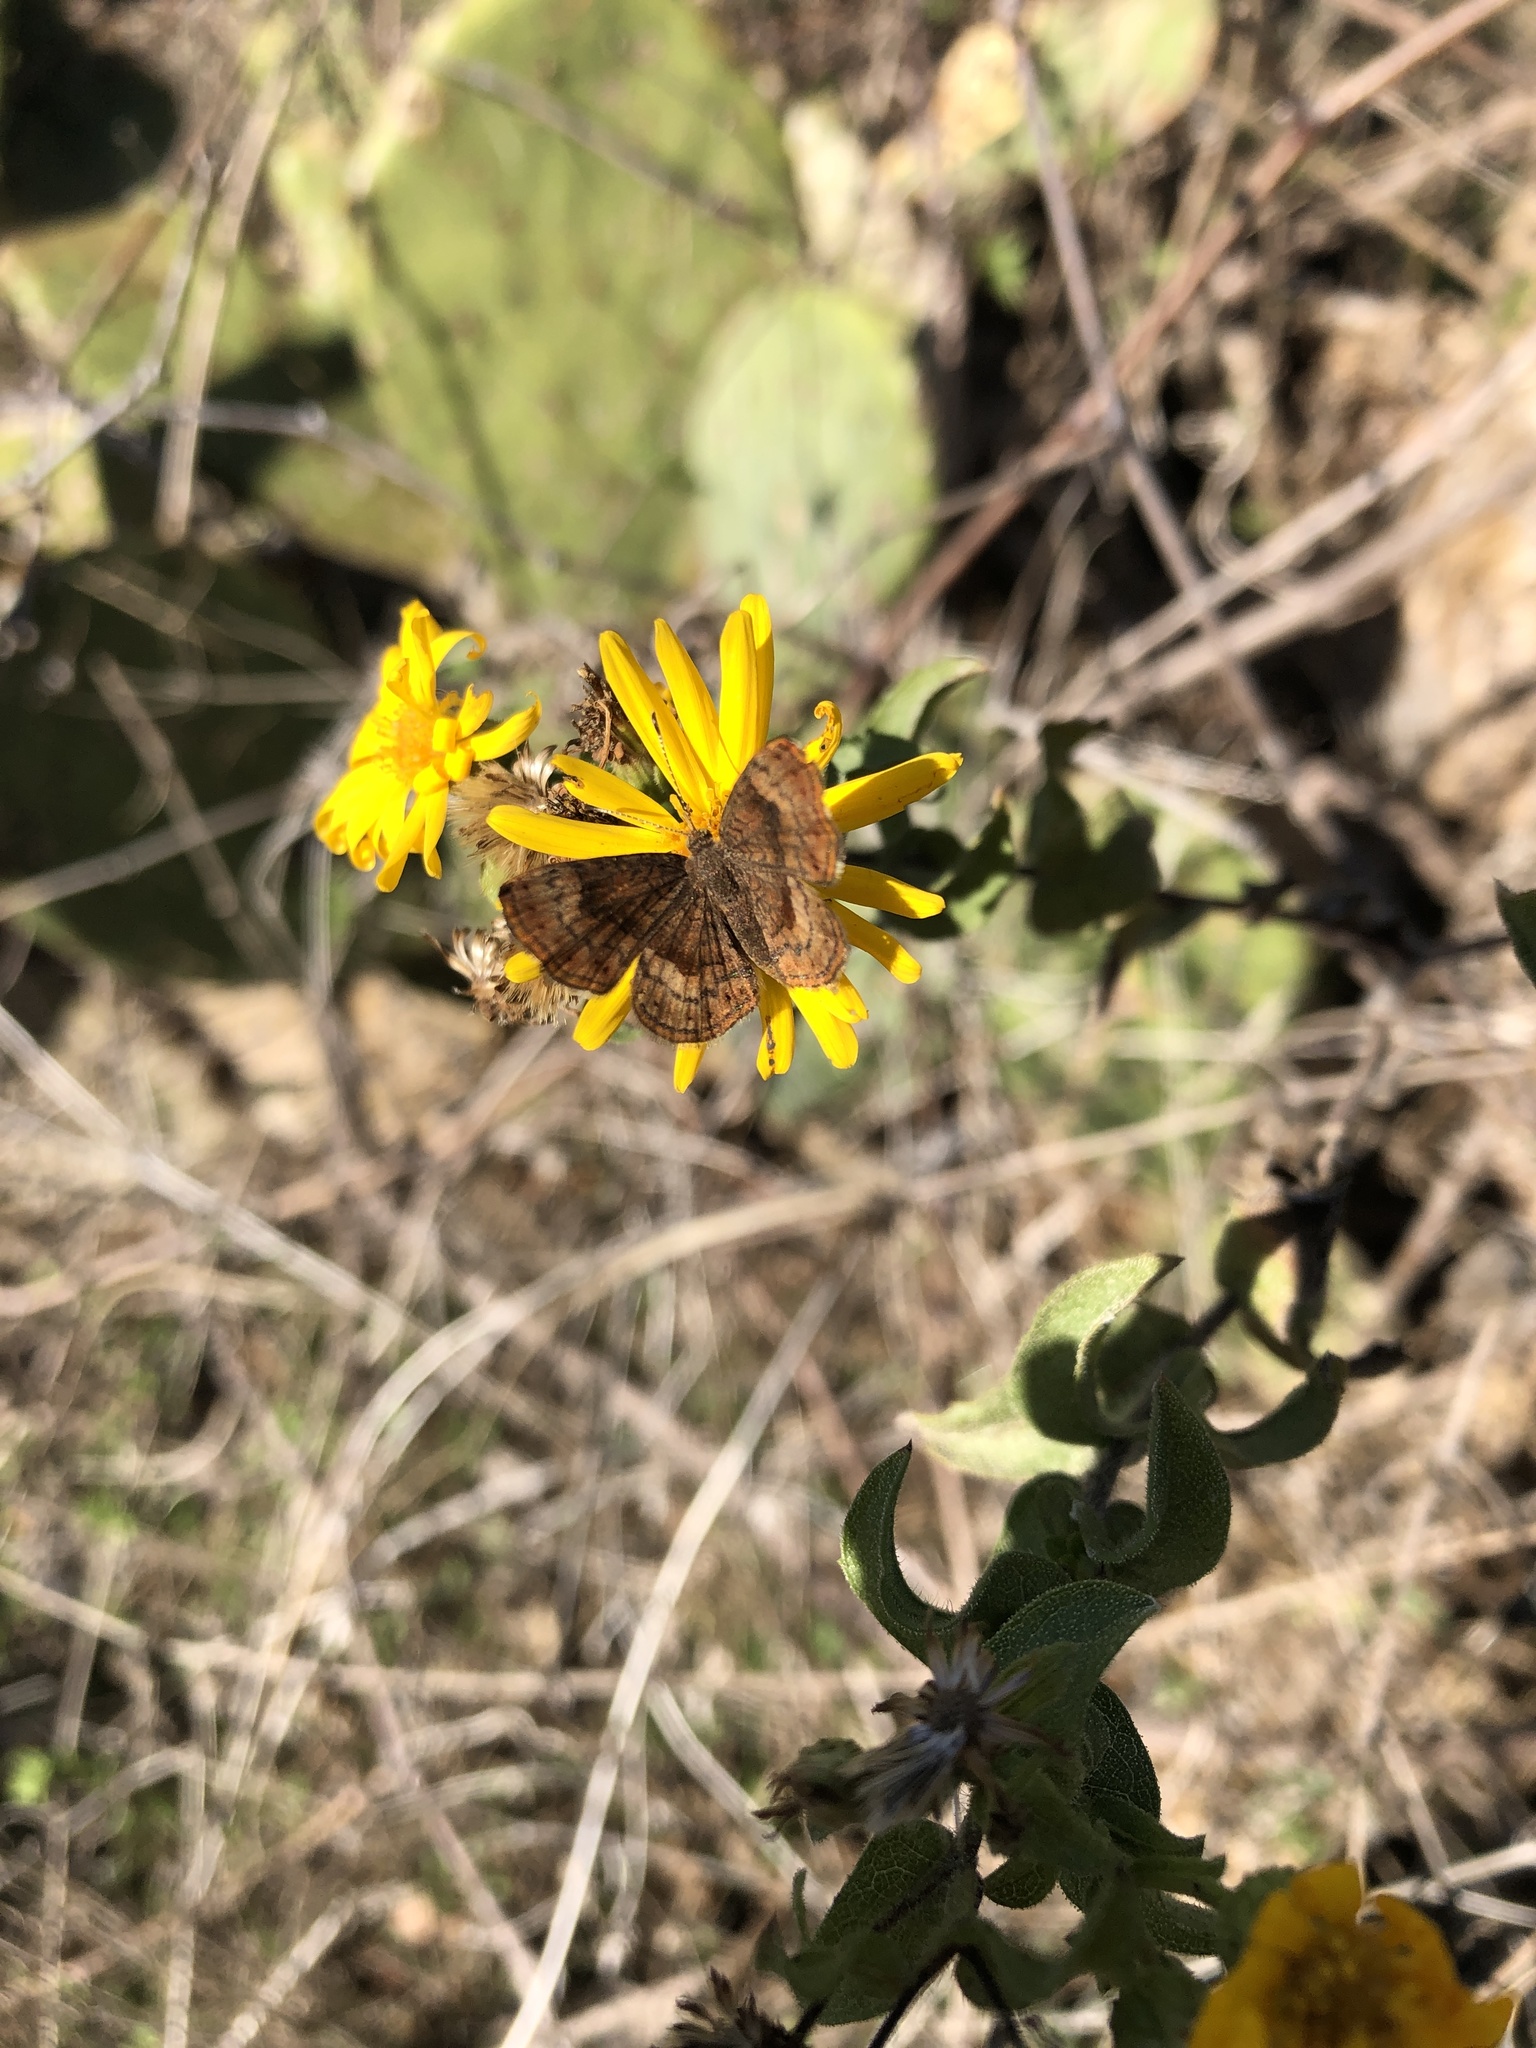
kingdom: Animalia
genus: Calephelis
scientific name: Calephelis nemesis
